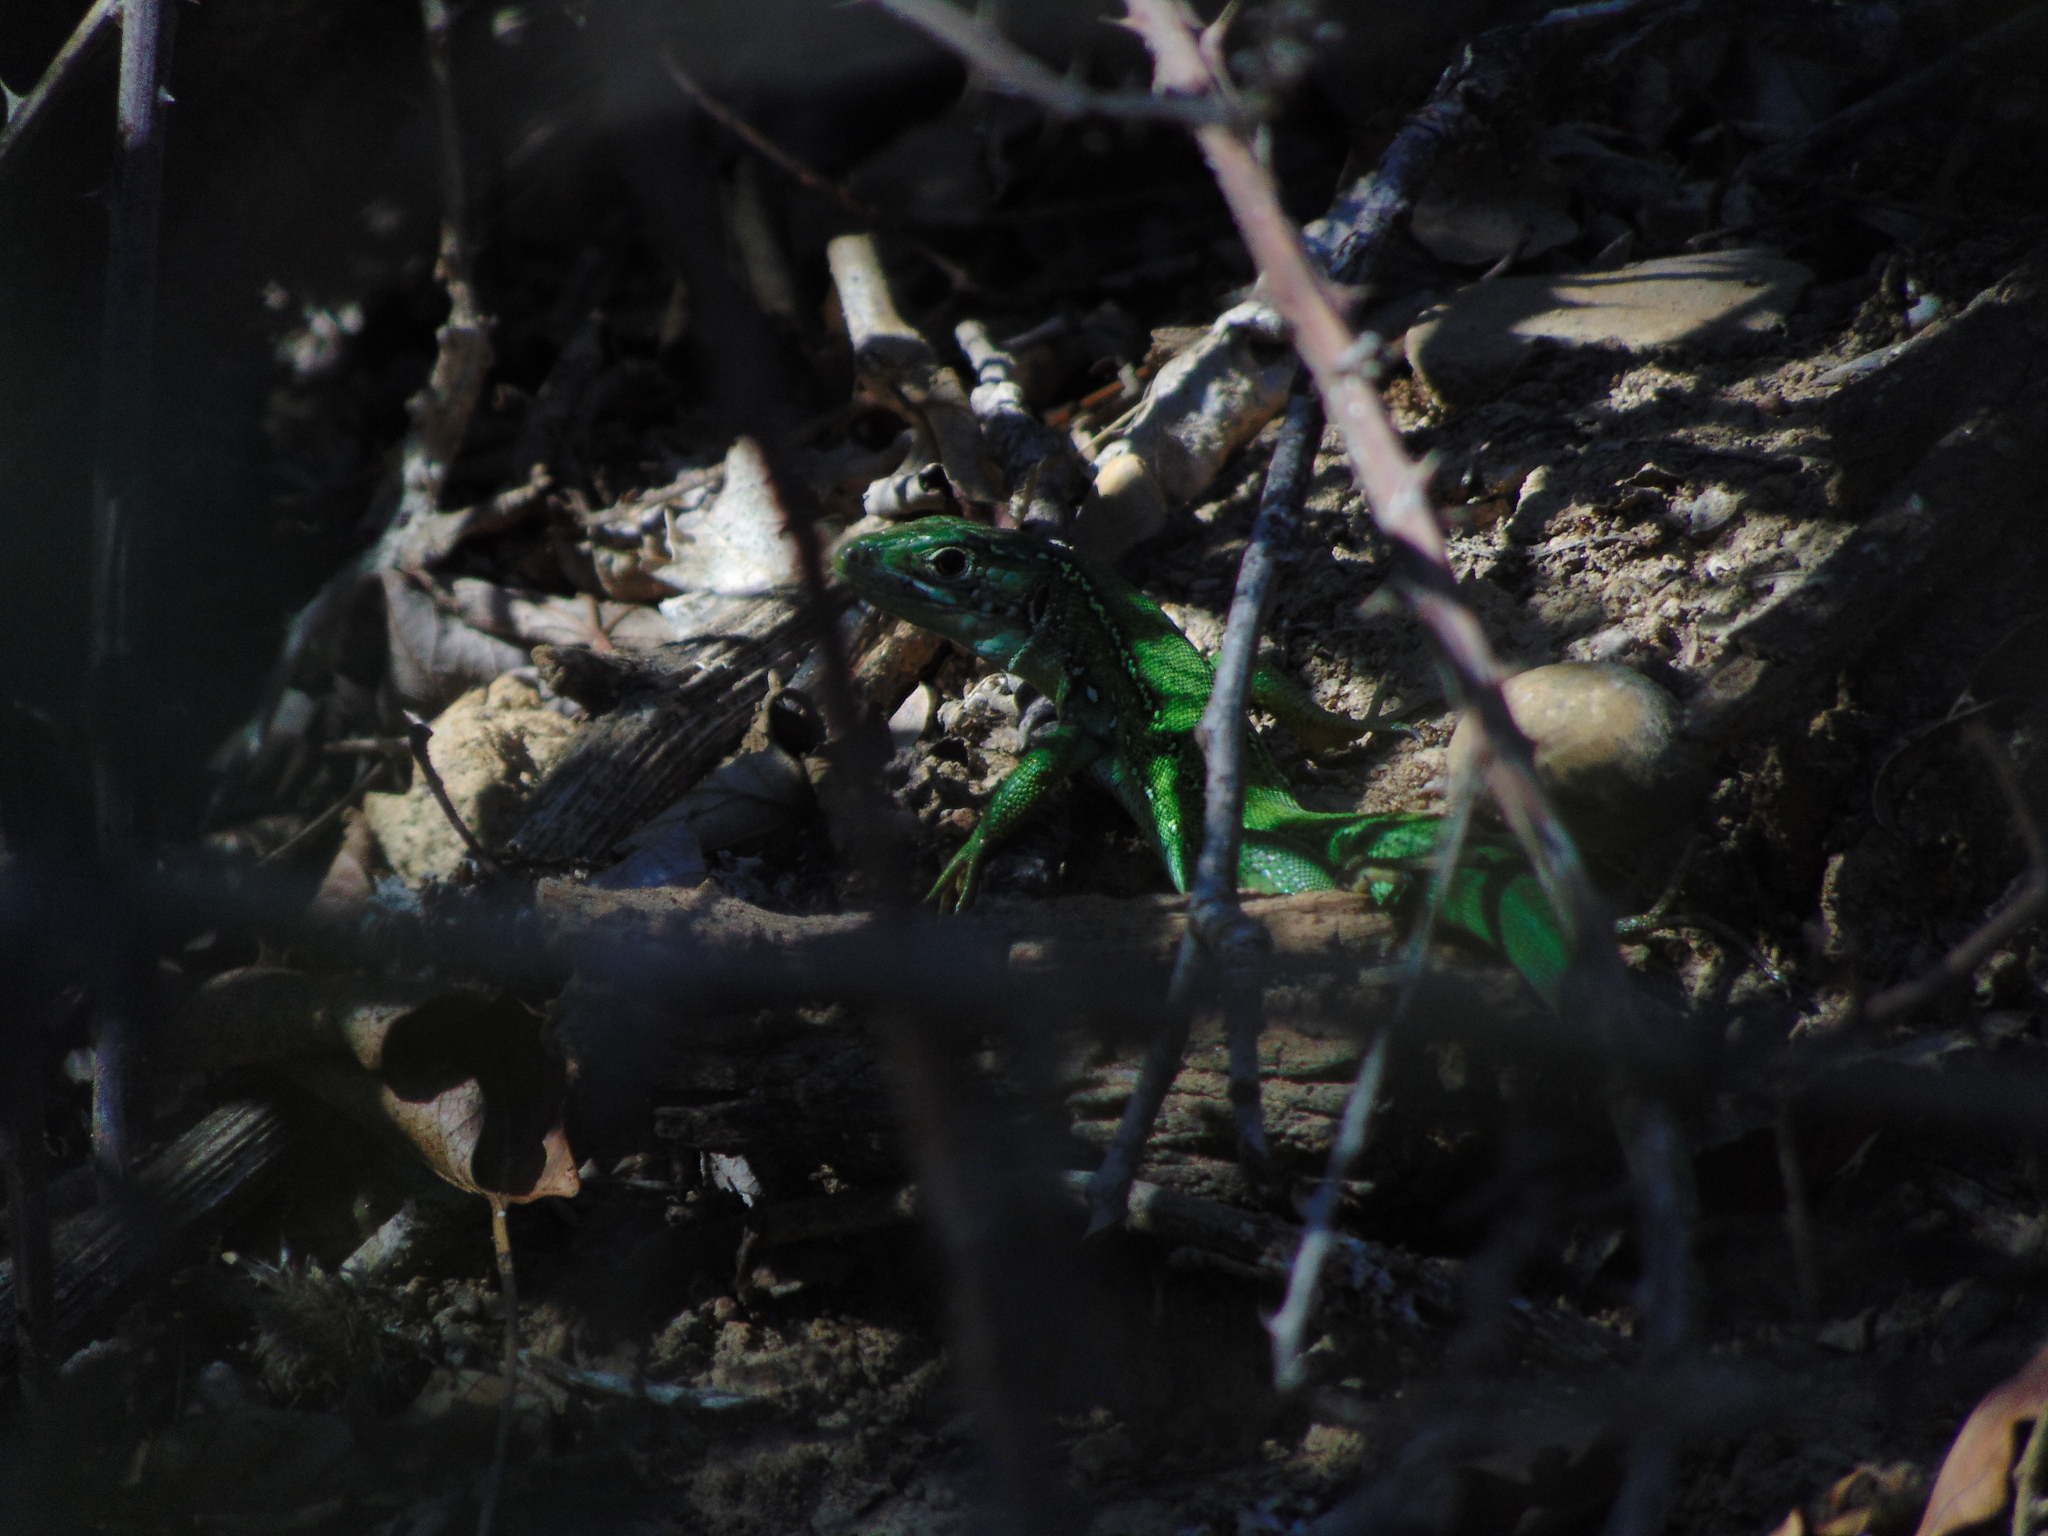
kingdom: Animalia
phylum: Chordata
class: Squamata
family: Lacertidae
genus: Lacerta
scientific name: Lacerta bilineata
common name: Western green lizard
